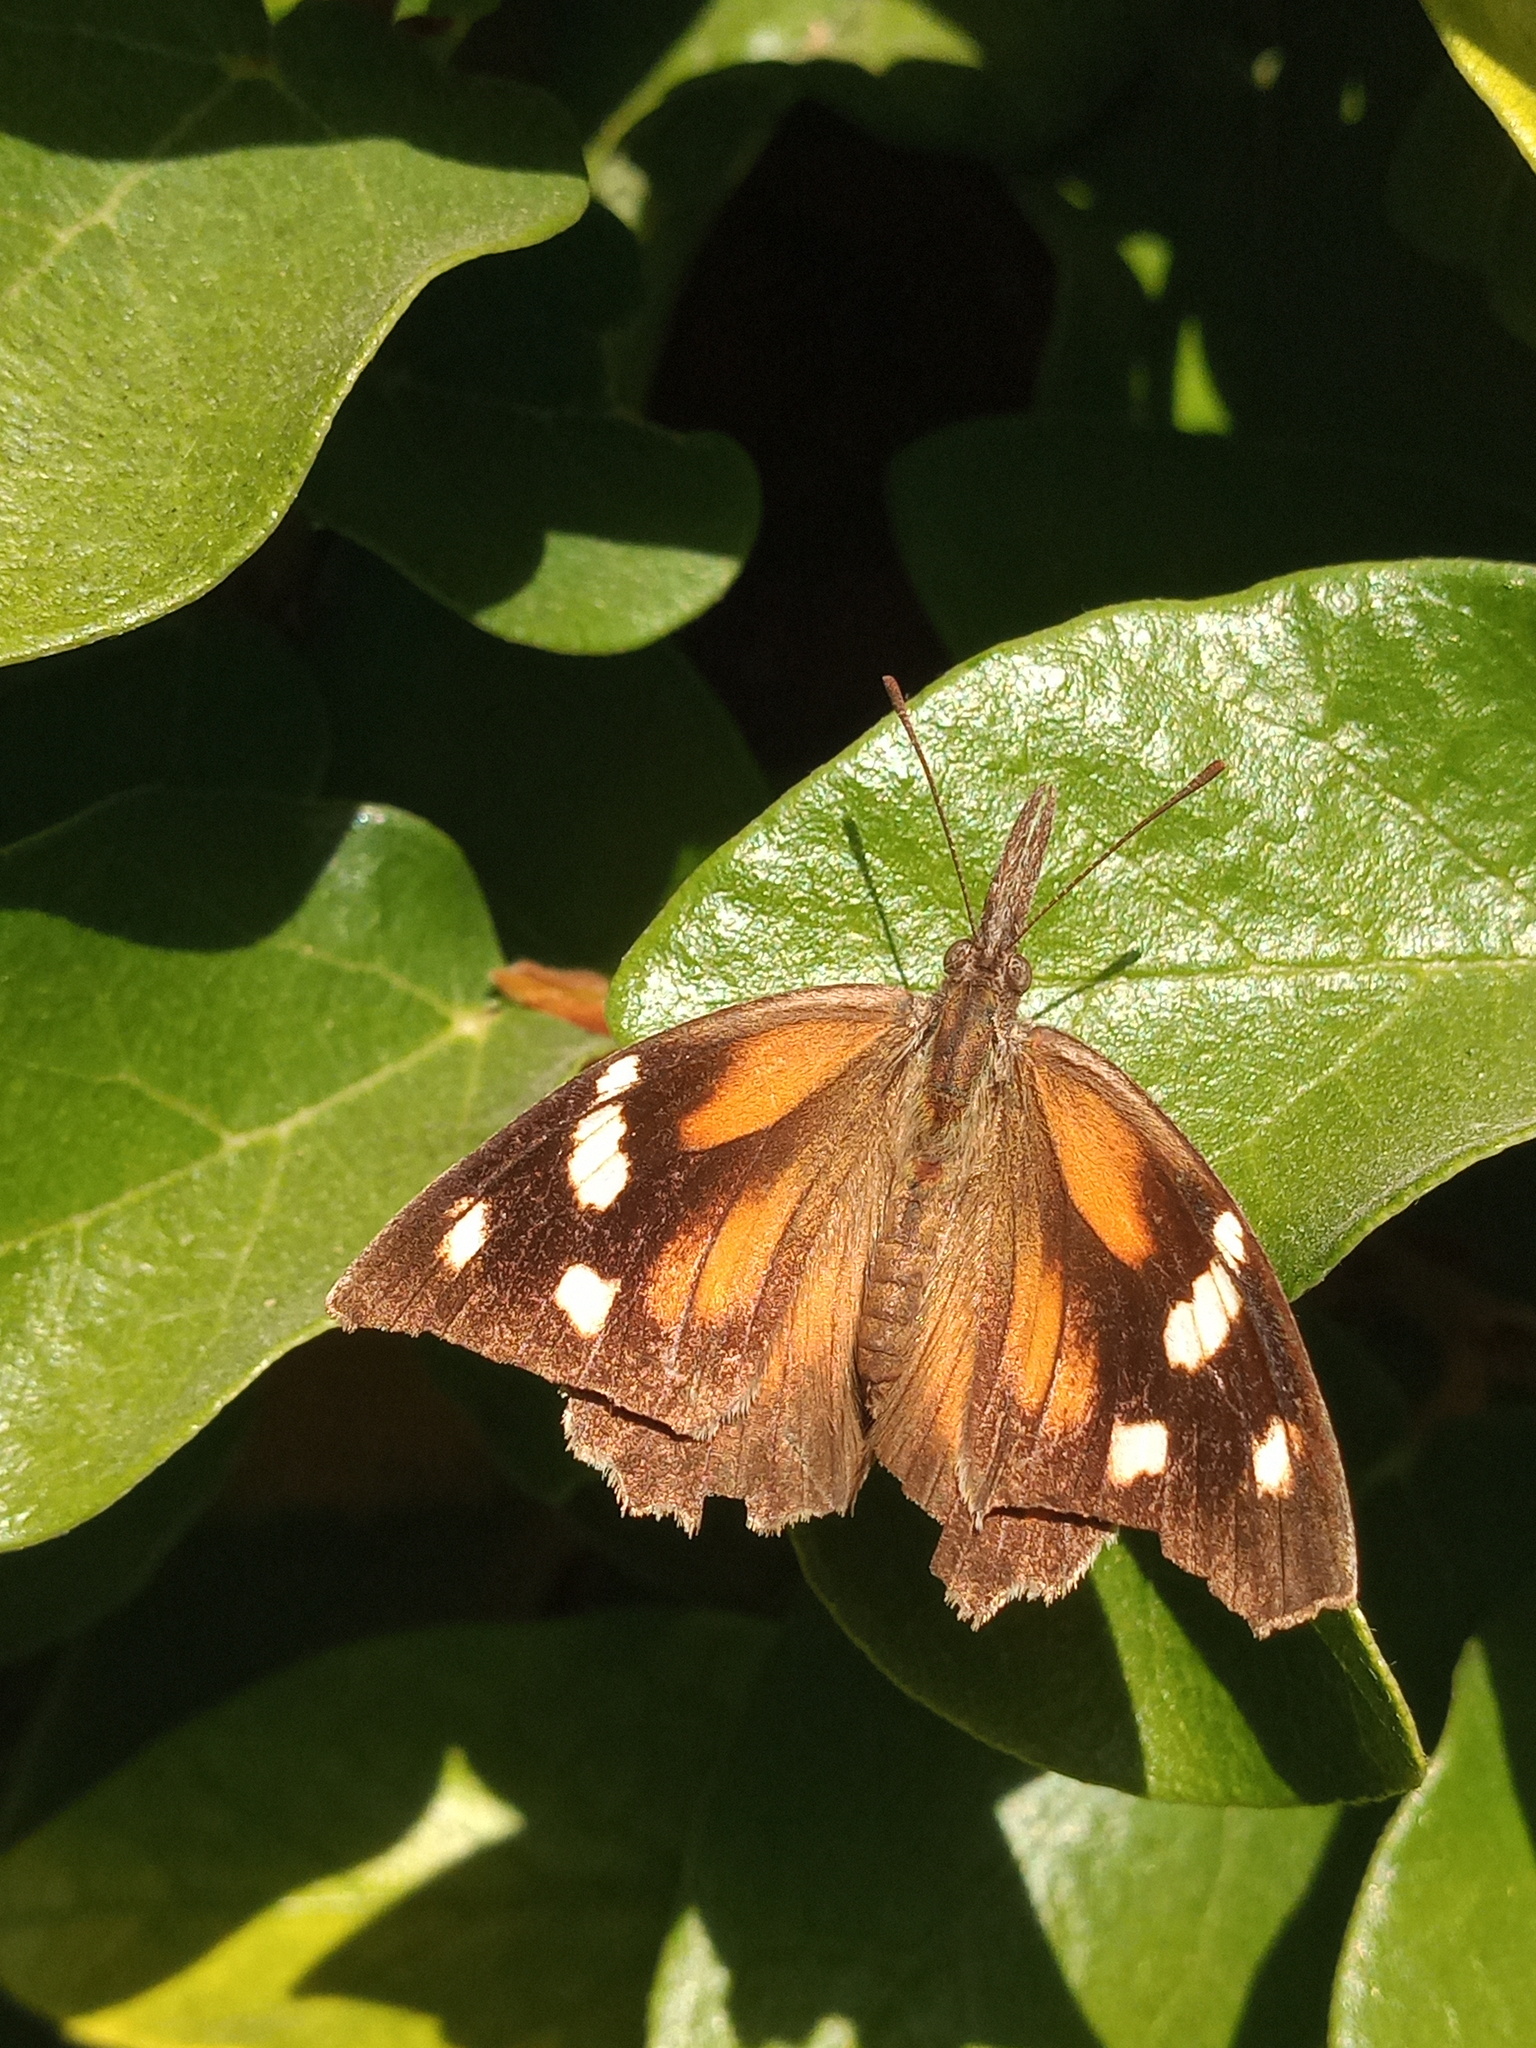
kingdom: Animalia
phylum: Arthropoda
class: Insecta
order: Lepidoptera
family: Nymphalidae
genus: Libytheana
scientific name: Libytheana carinenta
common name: American snout
